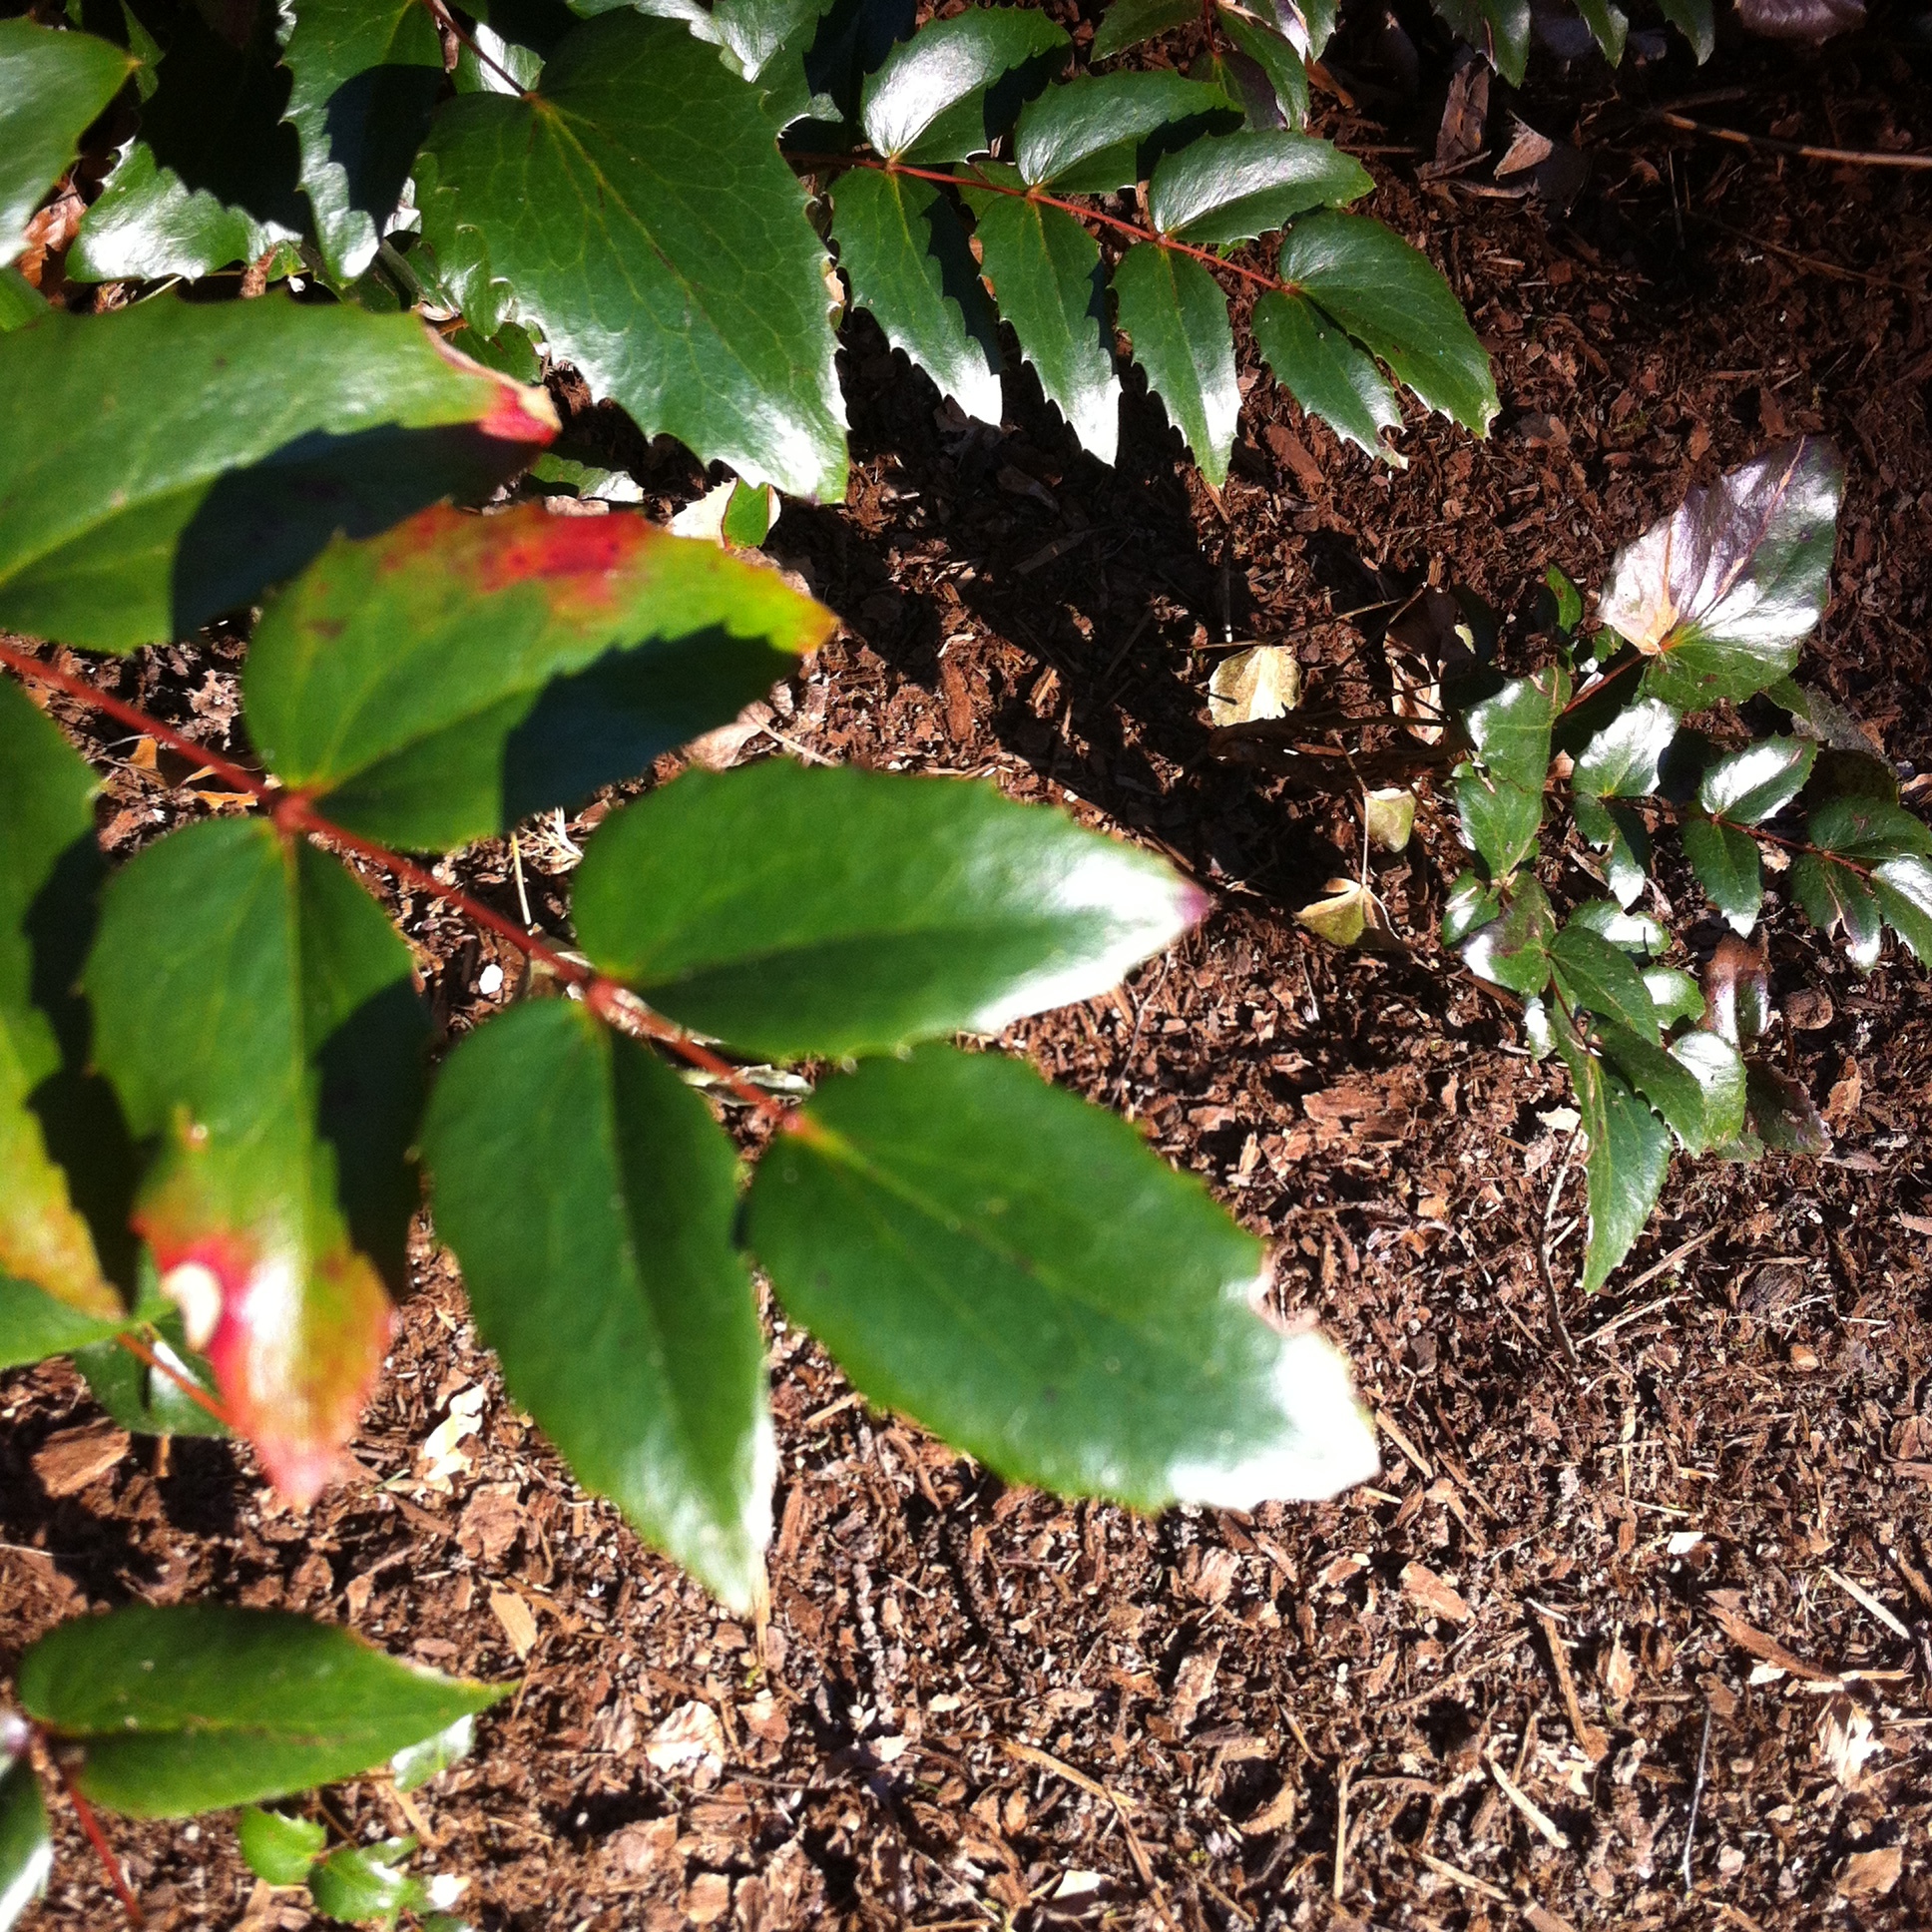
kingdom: Plantae
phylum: Tracheophyta
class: Magnoliopsida
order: Ranunculales
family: Berberidaceae
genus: Mahonia
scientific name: Mahonia nervosa
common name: Cascade oregon-grape
